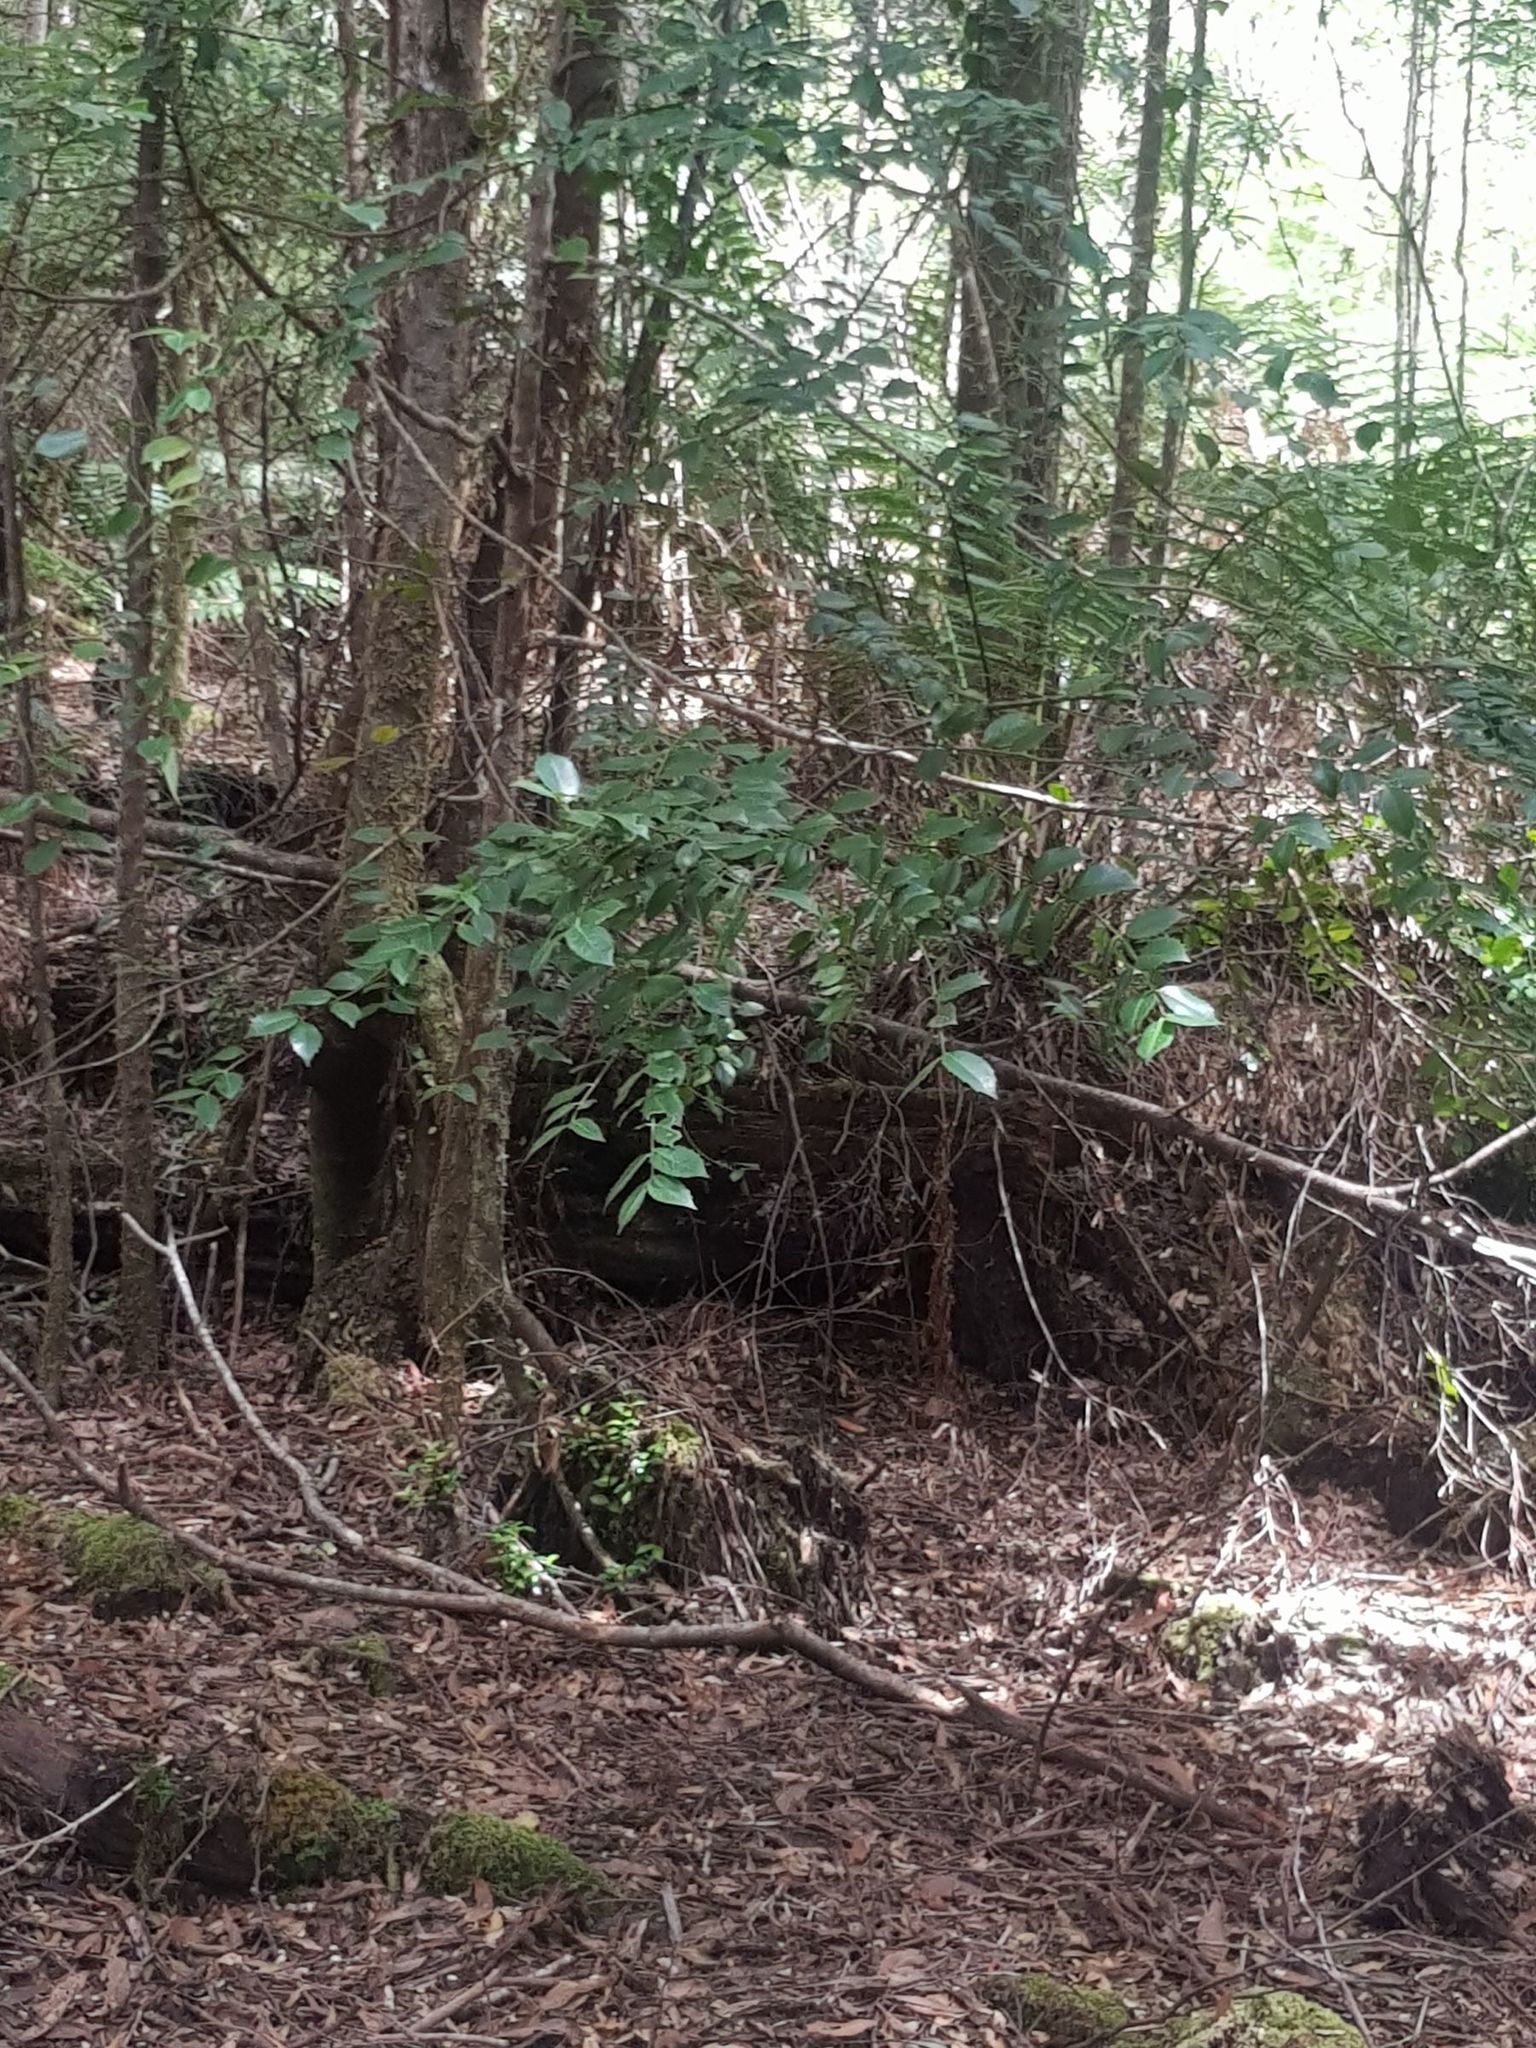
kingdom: Plantae
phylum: Tracheophyta
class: Magnoliopsida
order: Laurales
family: Atherospermataceae
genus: Atherosperma
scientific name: Atherosperma moschatum
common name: Tasmanian-sassafras
